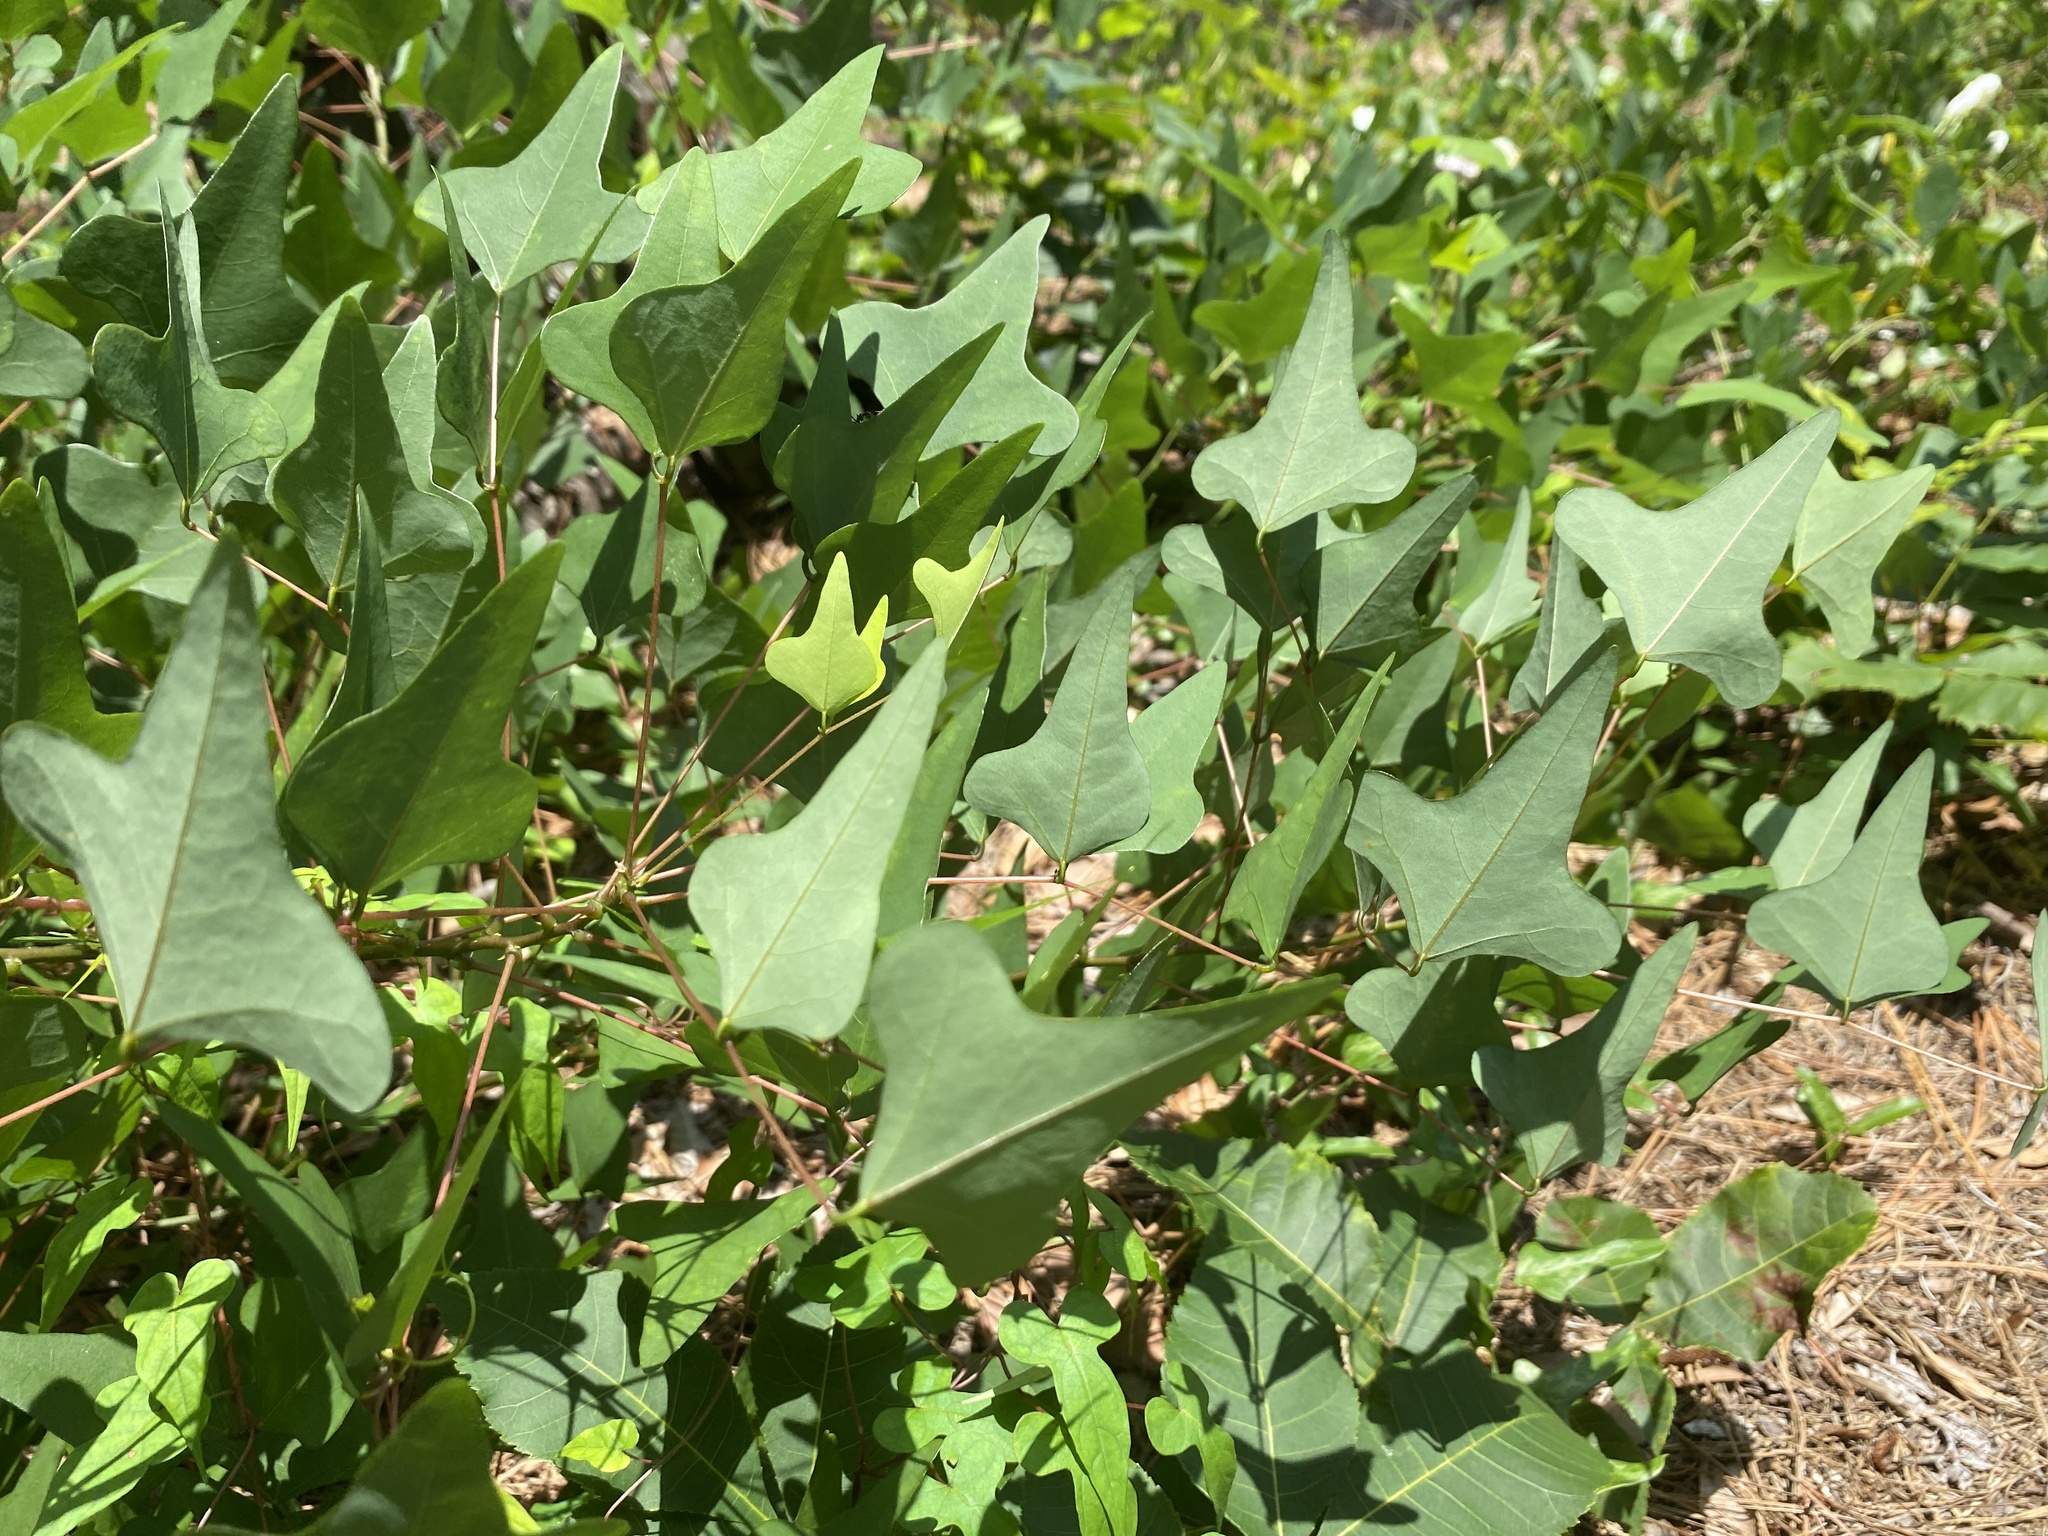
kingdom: Plantae
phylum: Tracheophyta
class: Magnoliopsida
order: Fabales
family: Fabaceae
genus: Erythrina
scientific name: Erythrina herbacea
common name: Coral-bean
